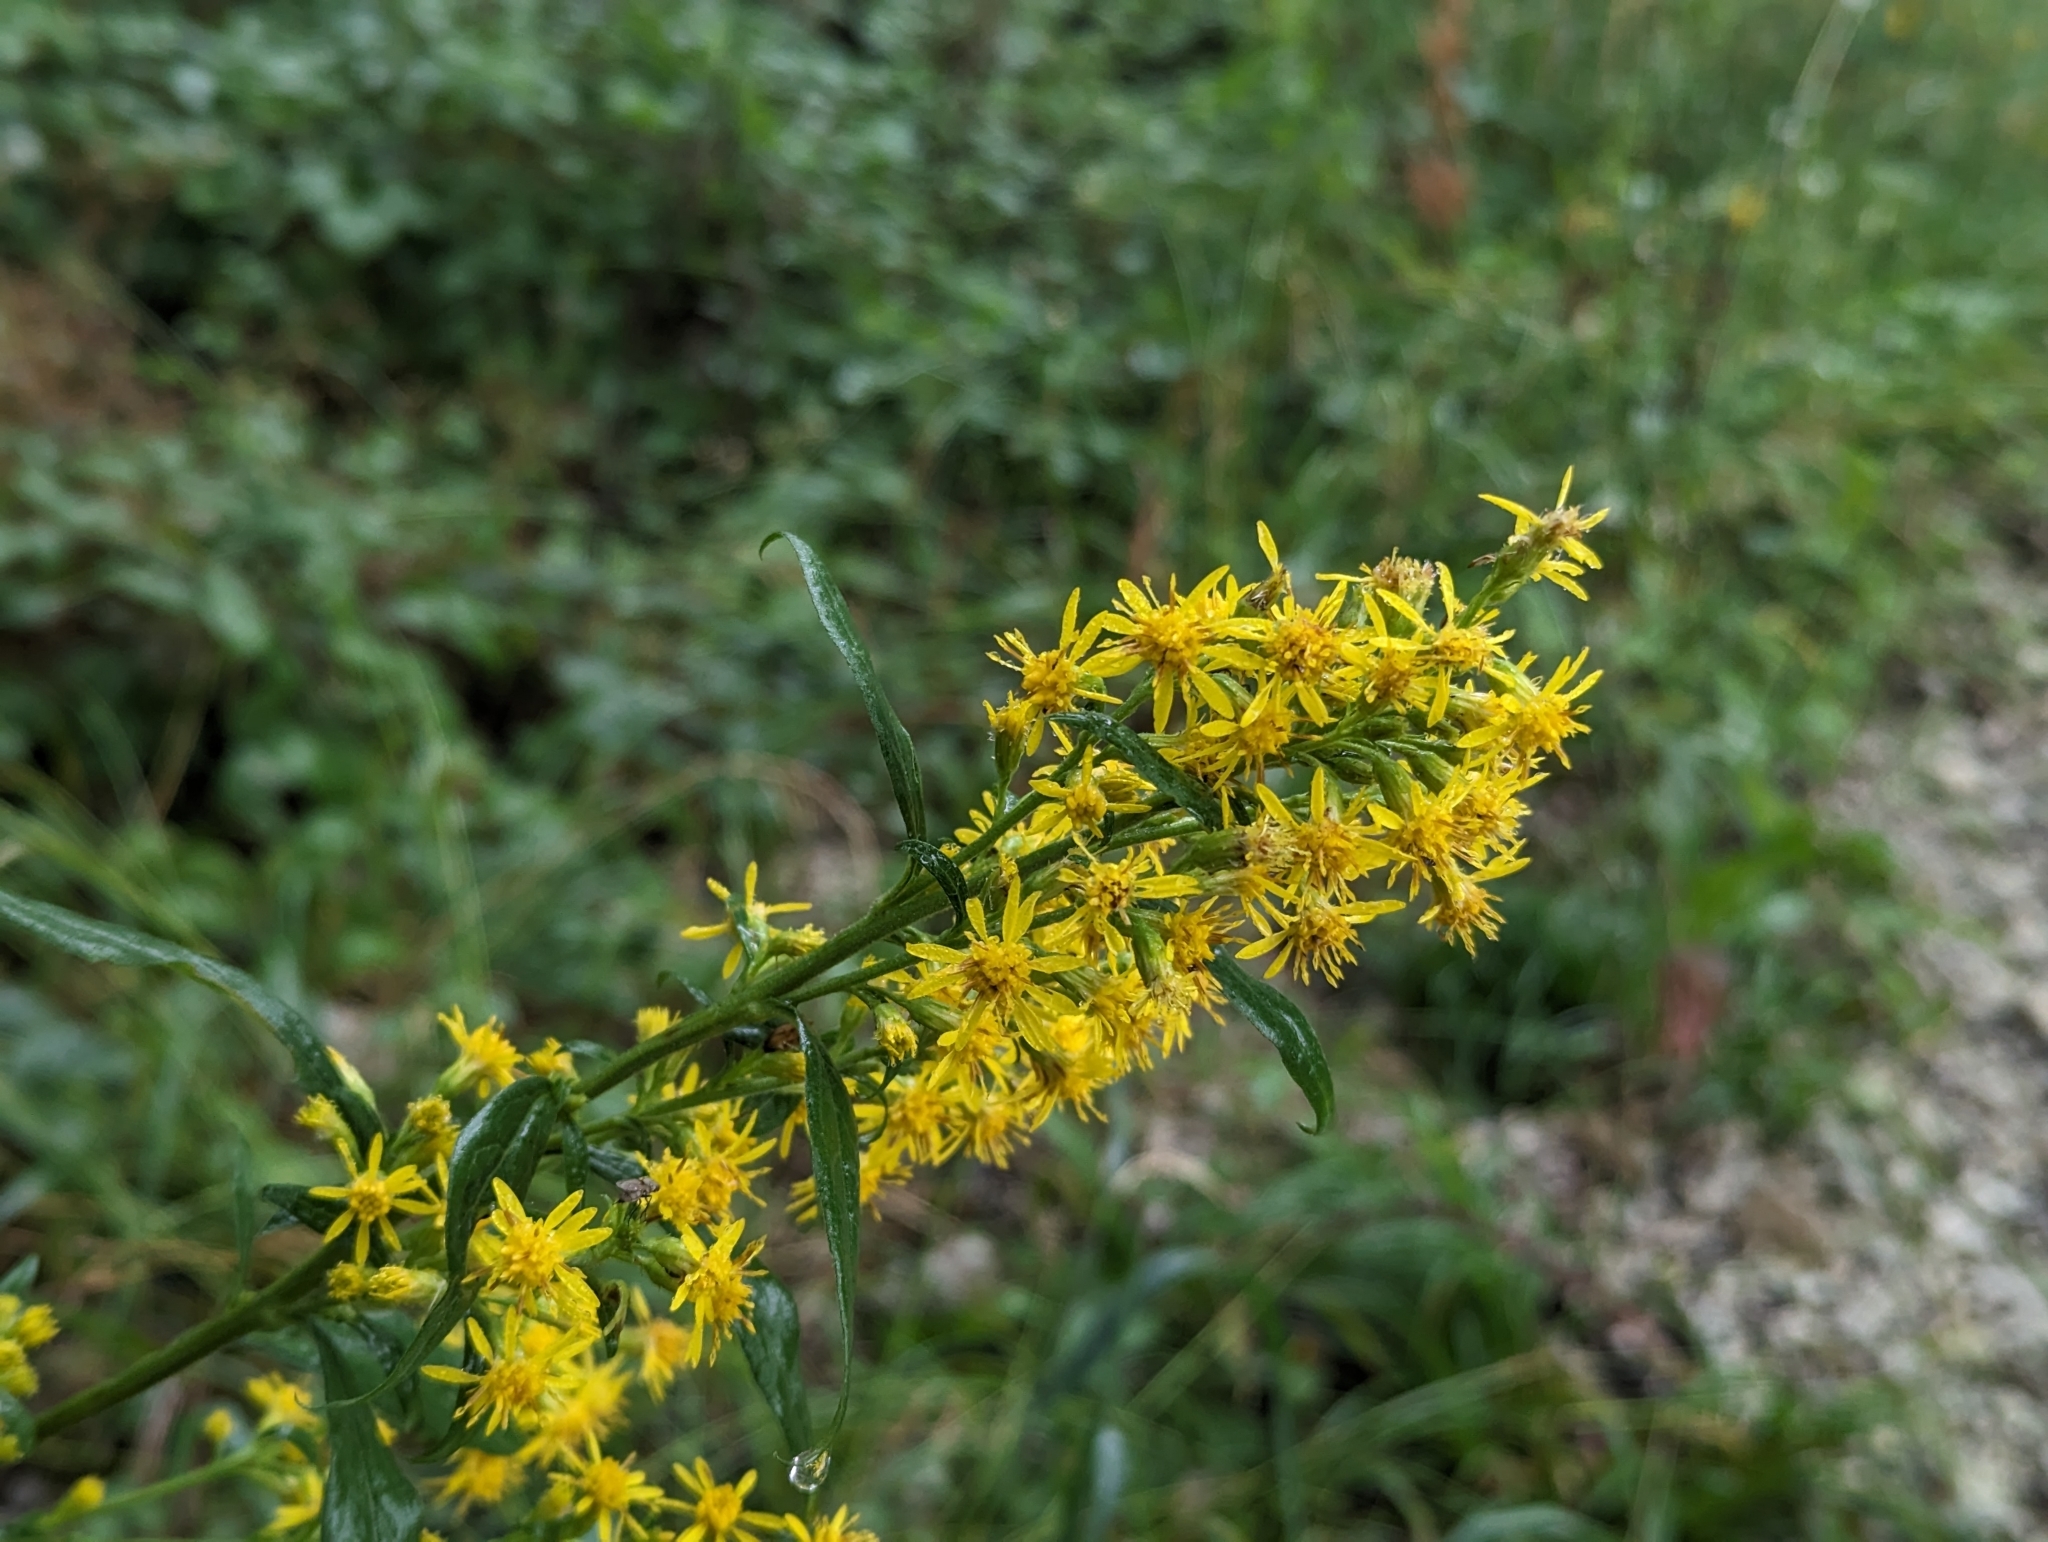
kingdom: Plantae
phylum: Tracheophyta
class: Magnoliopsida
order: Asterales
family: Asteraceae
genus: Solidago
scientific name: Solidago virgaurea
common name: Goldenrod
